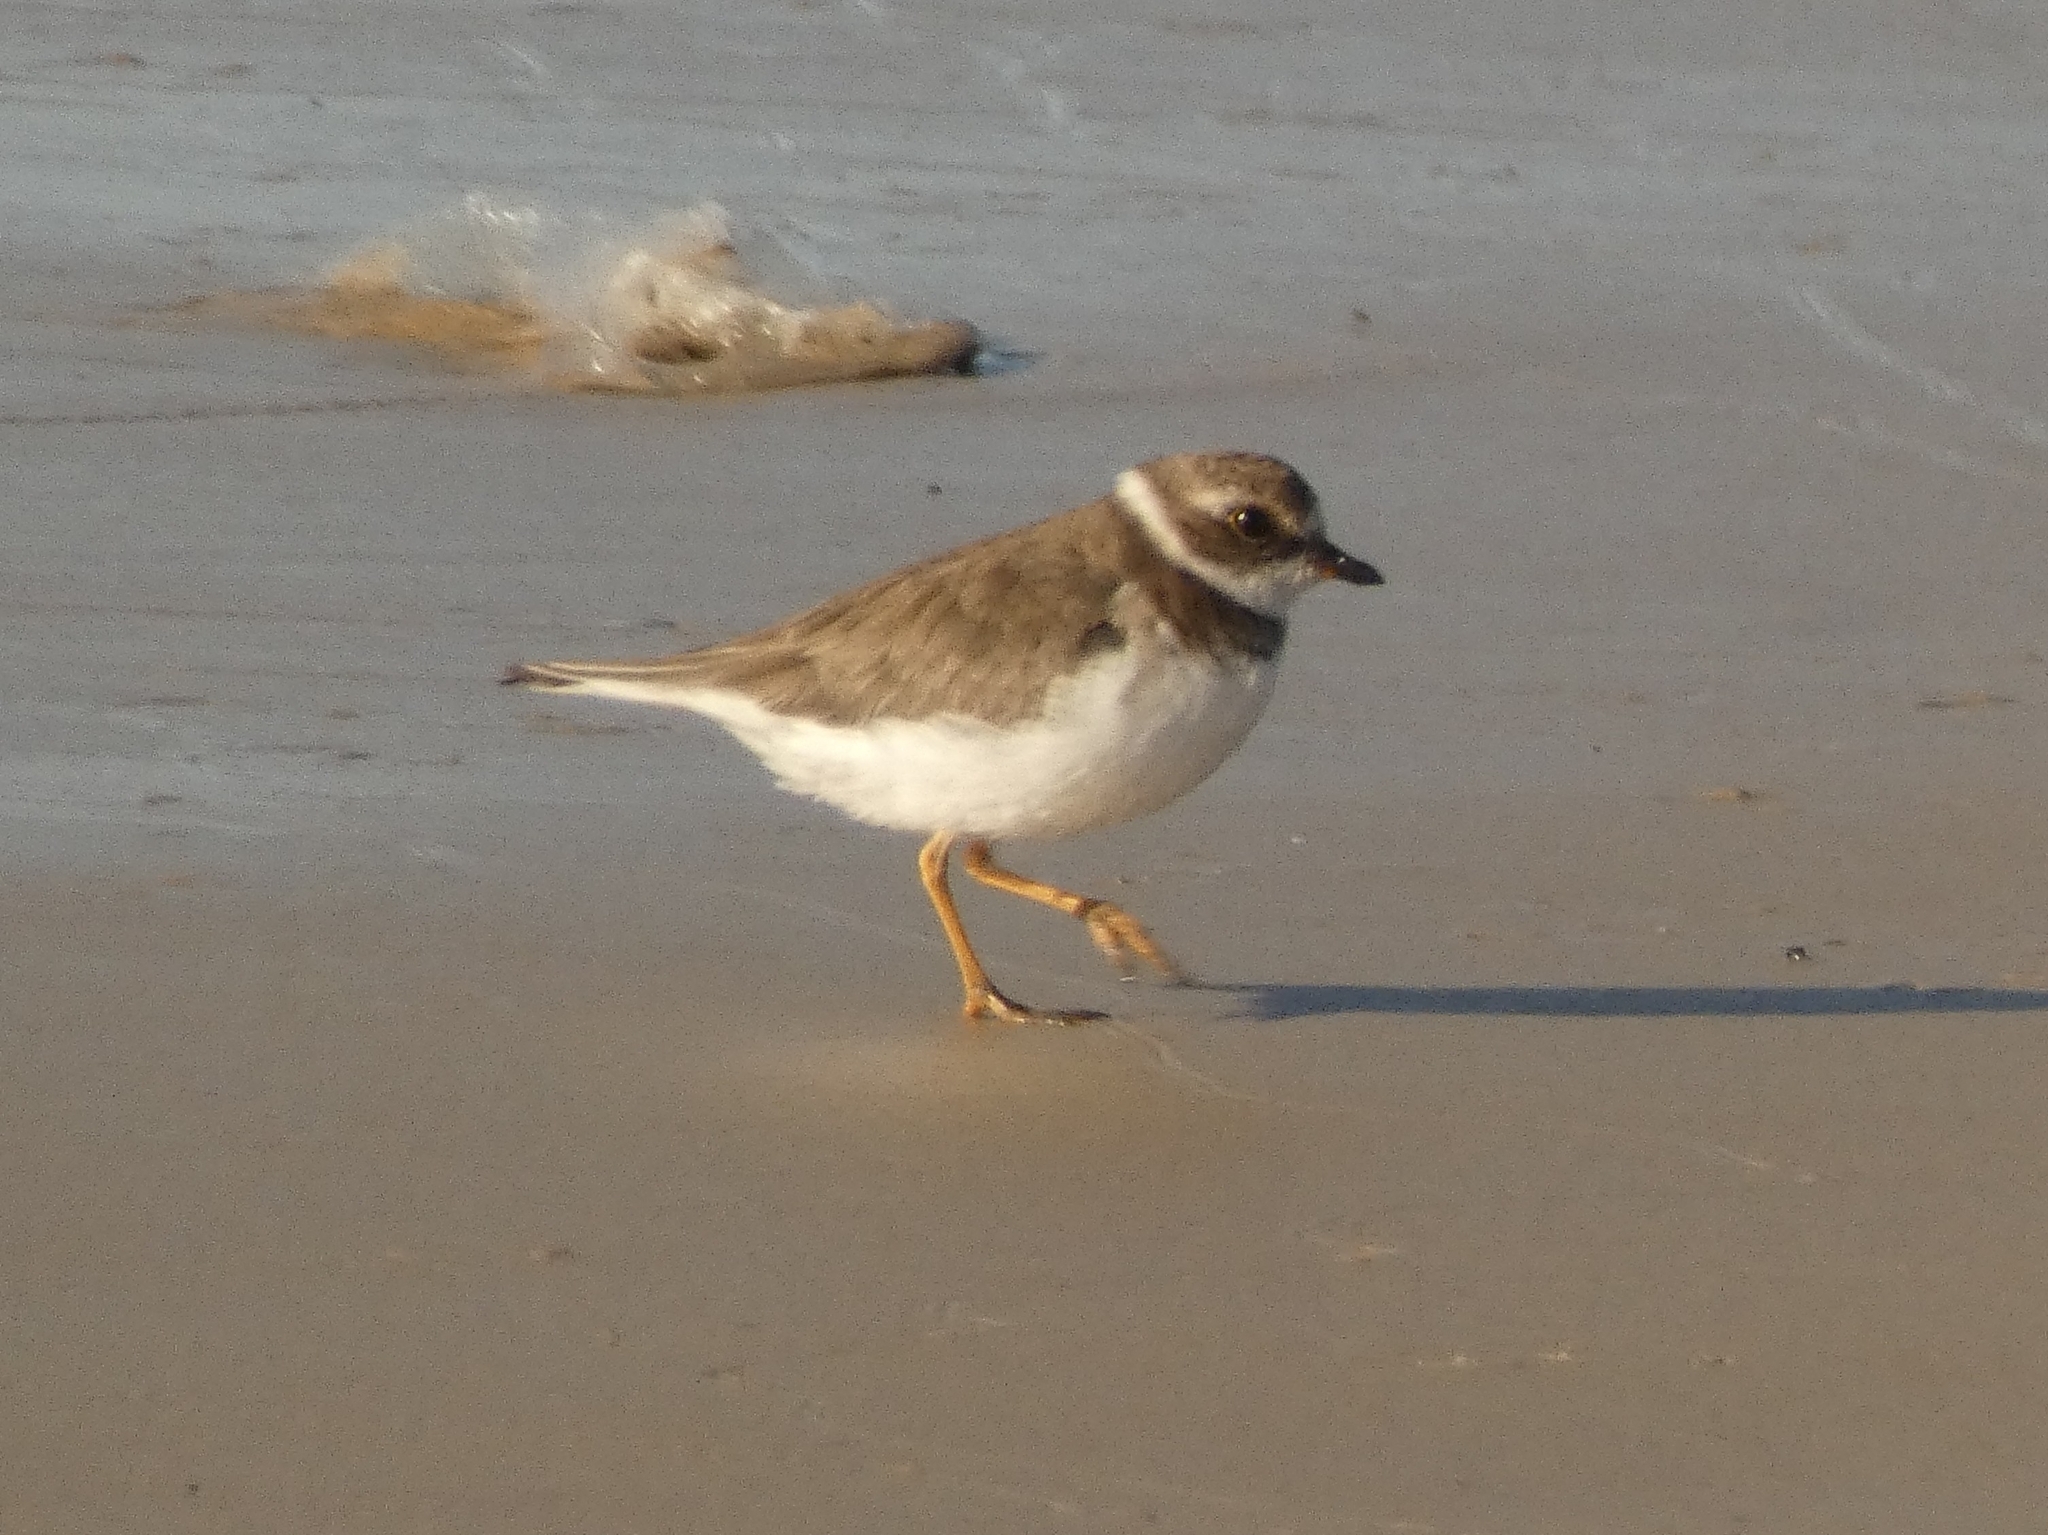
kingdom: Animalia
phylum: Chordata
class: Aves
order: Charadriiformes
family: Charadriidae
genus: Charadrius
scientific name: Charadrius semipalmatus
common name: Semipalmated plover
